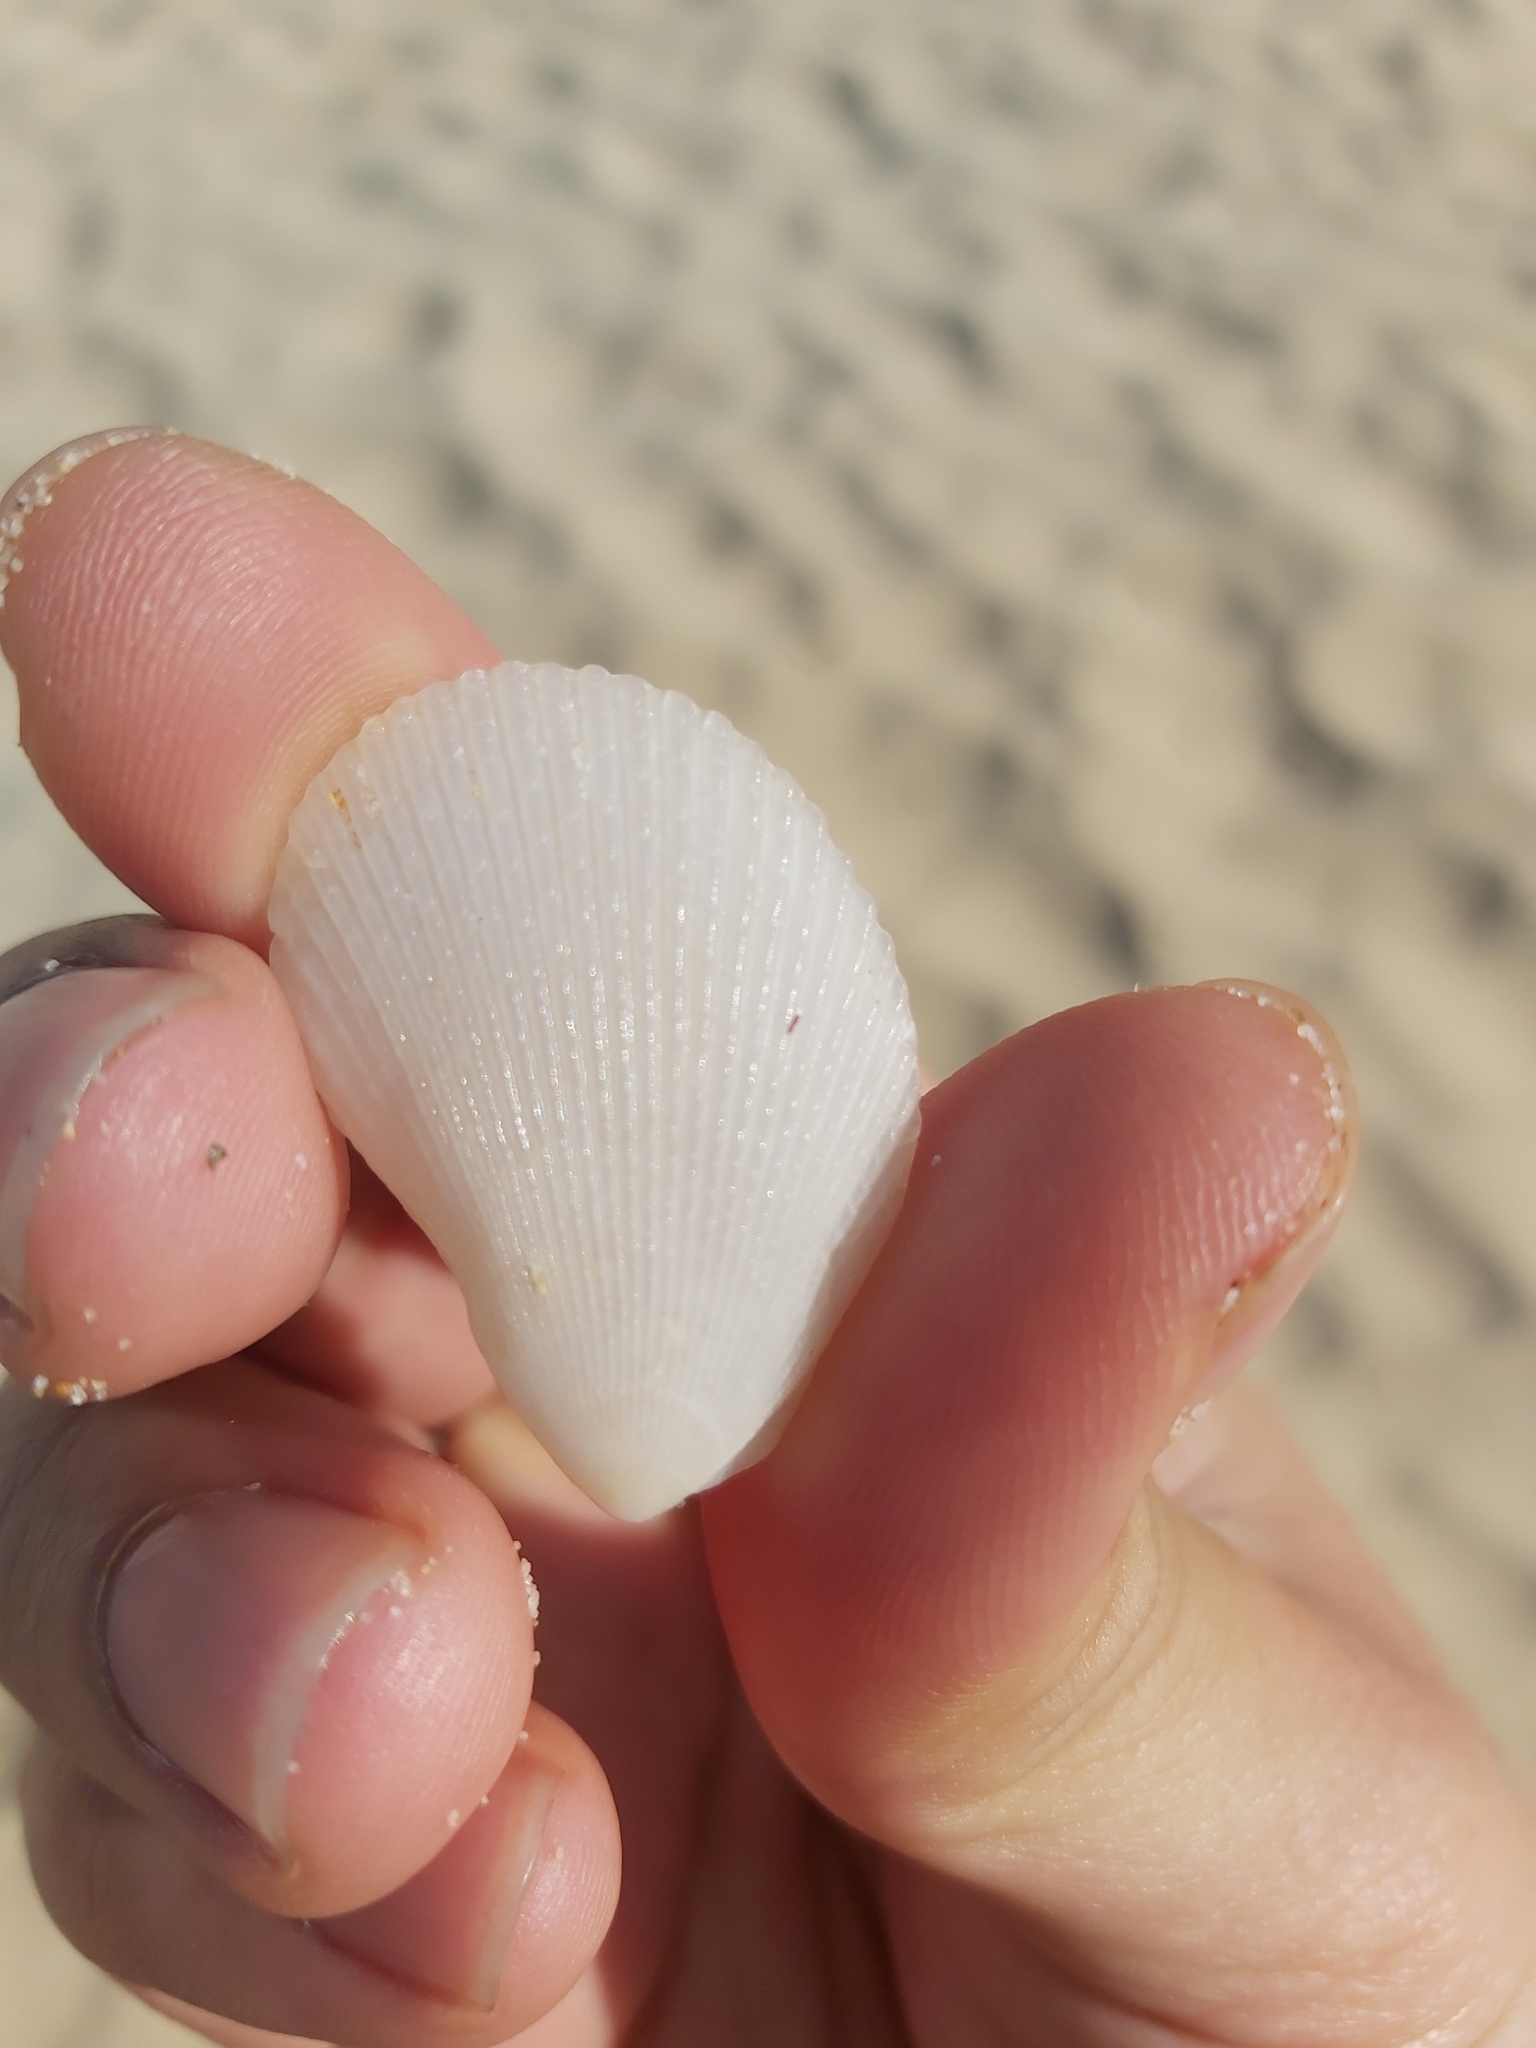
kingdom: Animalia
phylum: Mollusca
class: Bivalvia
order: Limida
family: Limidae
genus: Lima
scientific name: Lima nimbifer
